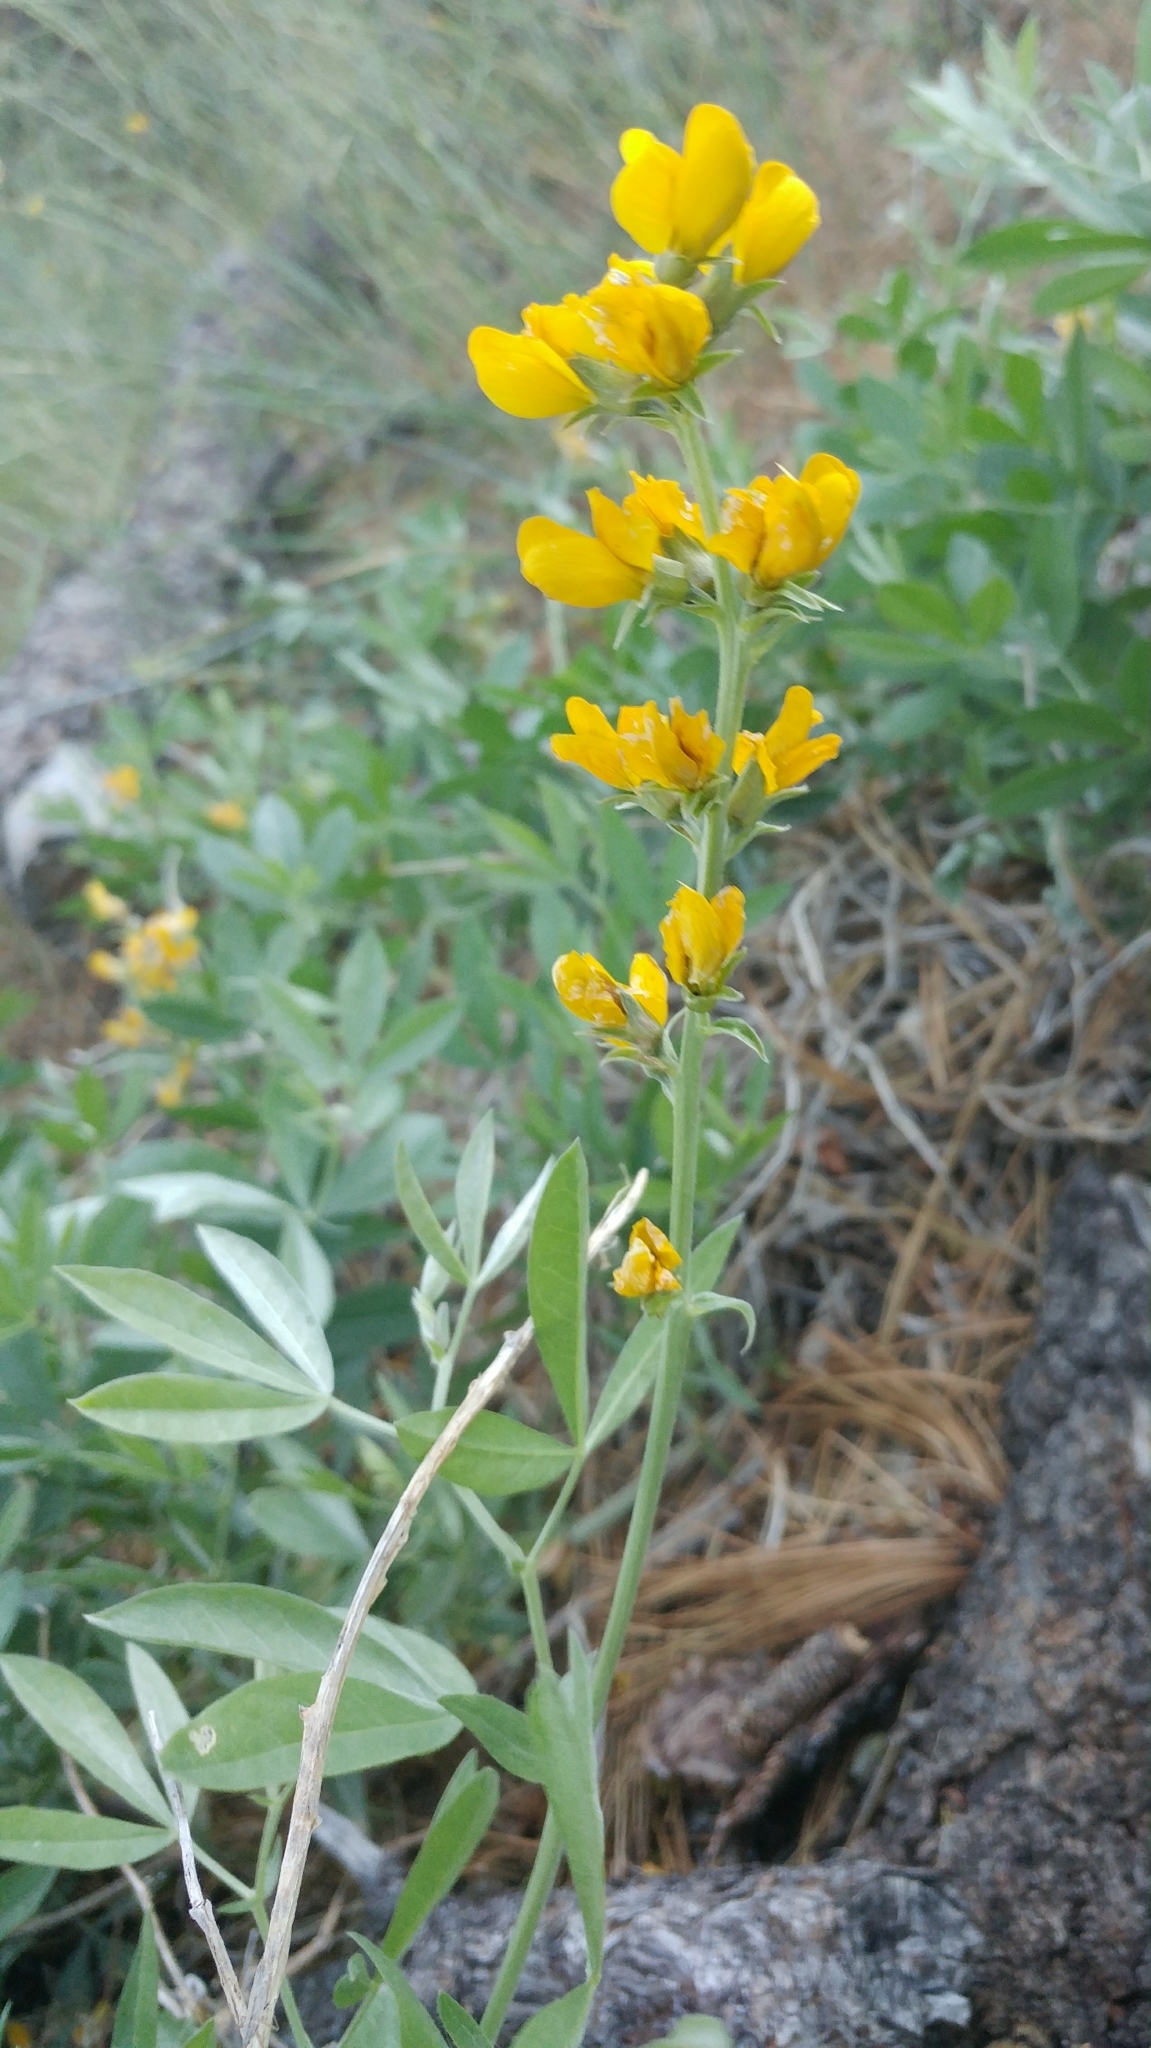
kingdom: Plantae
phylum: Tracheophyta
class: Magnoliopsida
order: Fabales
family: Fabaceae
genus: Thermopsis
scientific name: Thermopsis californica
